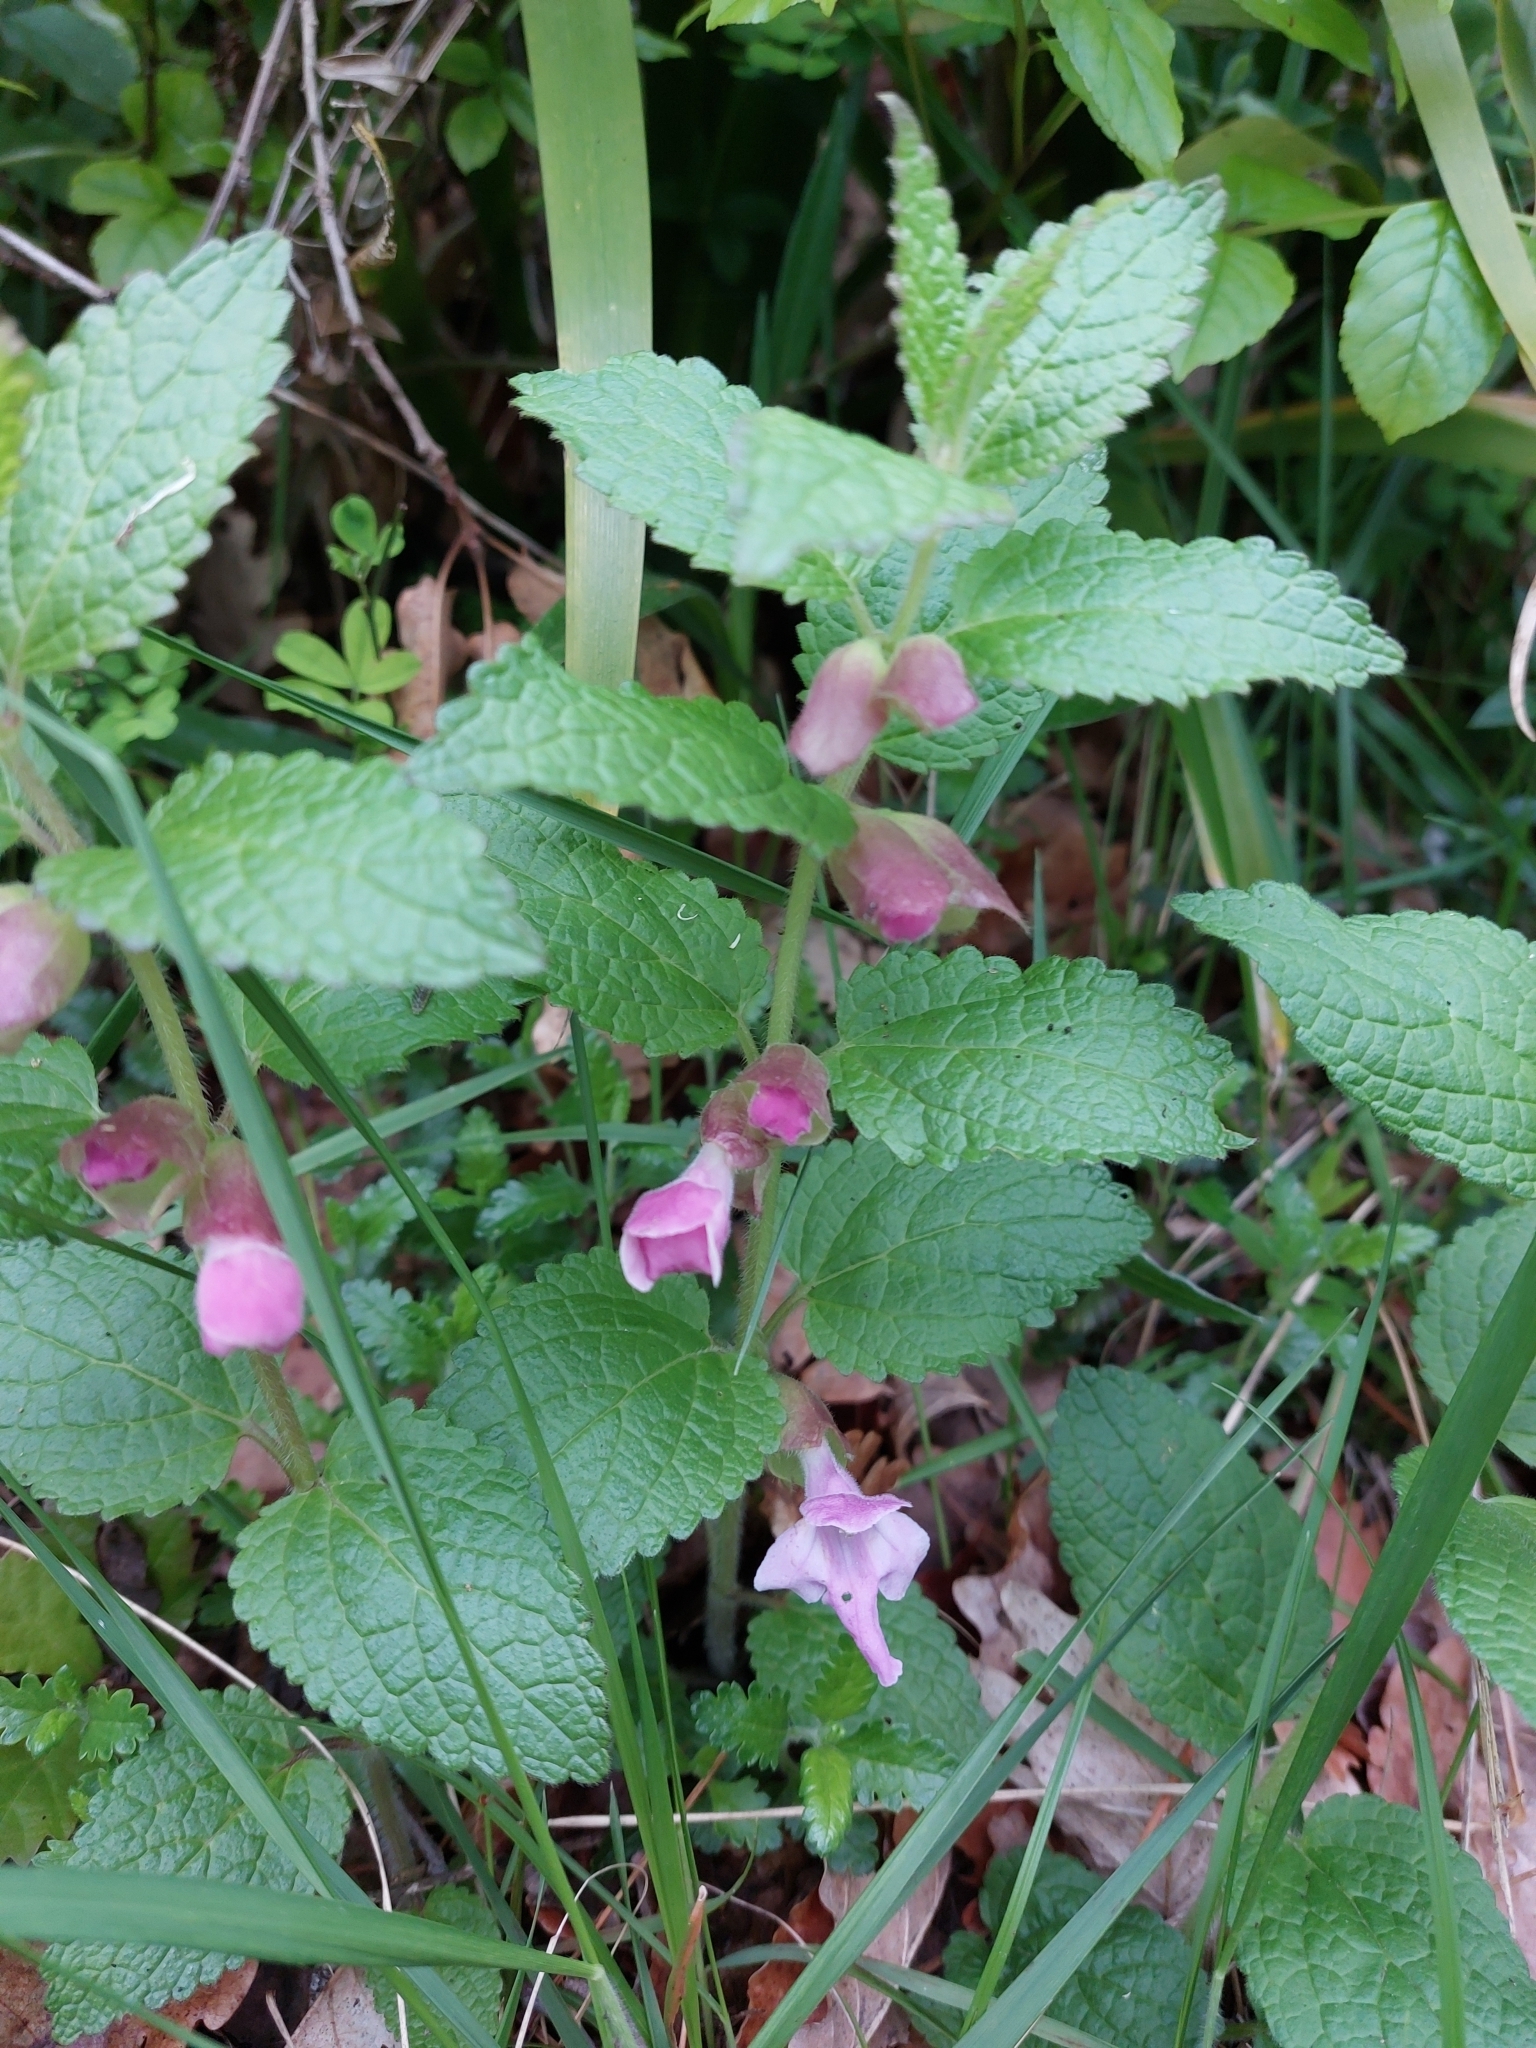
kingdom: Plantae
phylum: Tracheophyta
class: Magnoliopsida
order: Lamiales
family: Lamiaceae
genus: Melittis
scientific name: Melittis melissophyllum
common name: Bastard balm
